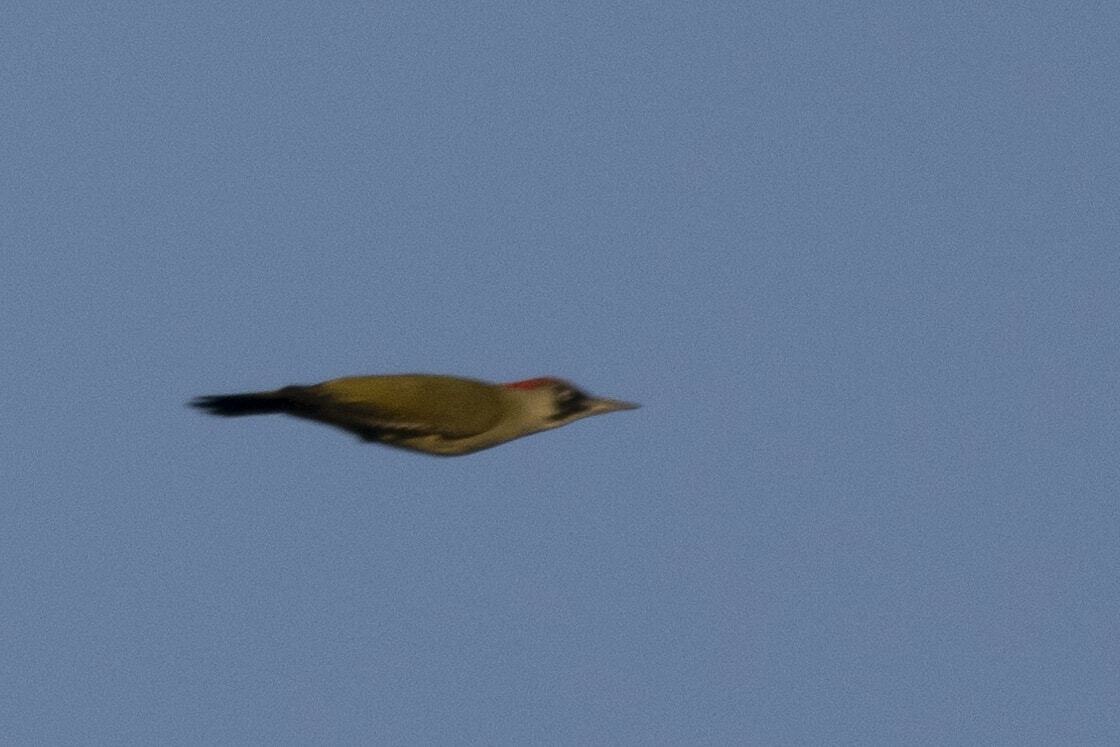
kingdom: Animalia
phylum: Chordata
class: Aves
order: Piciformes
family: Picidae
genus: Picus
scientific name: Picus viridis
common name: European green woodpecker
